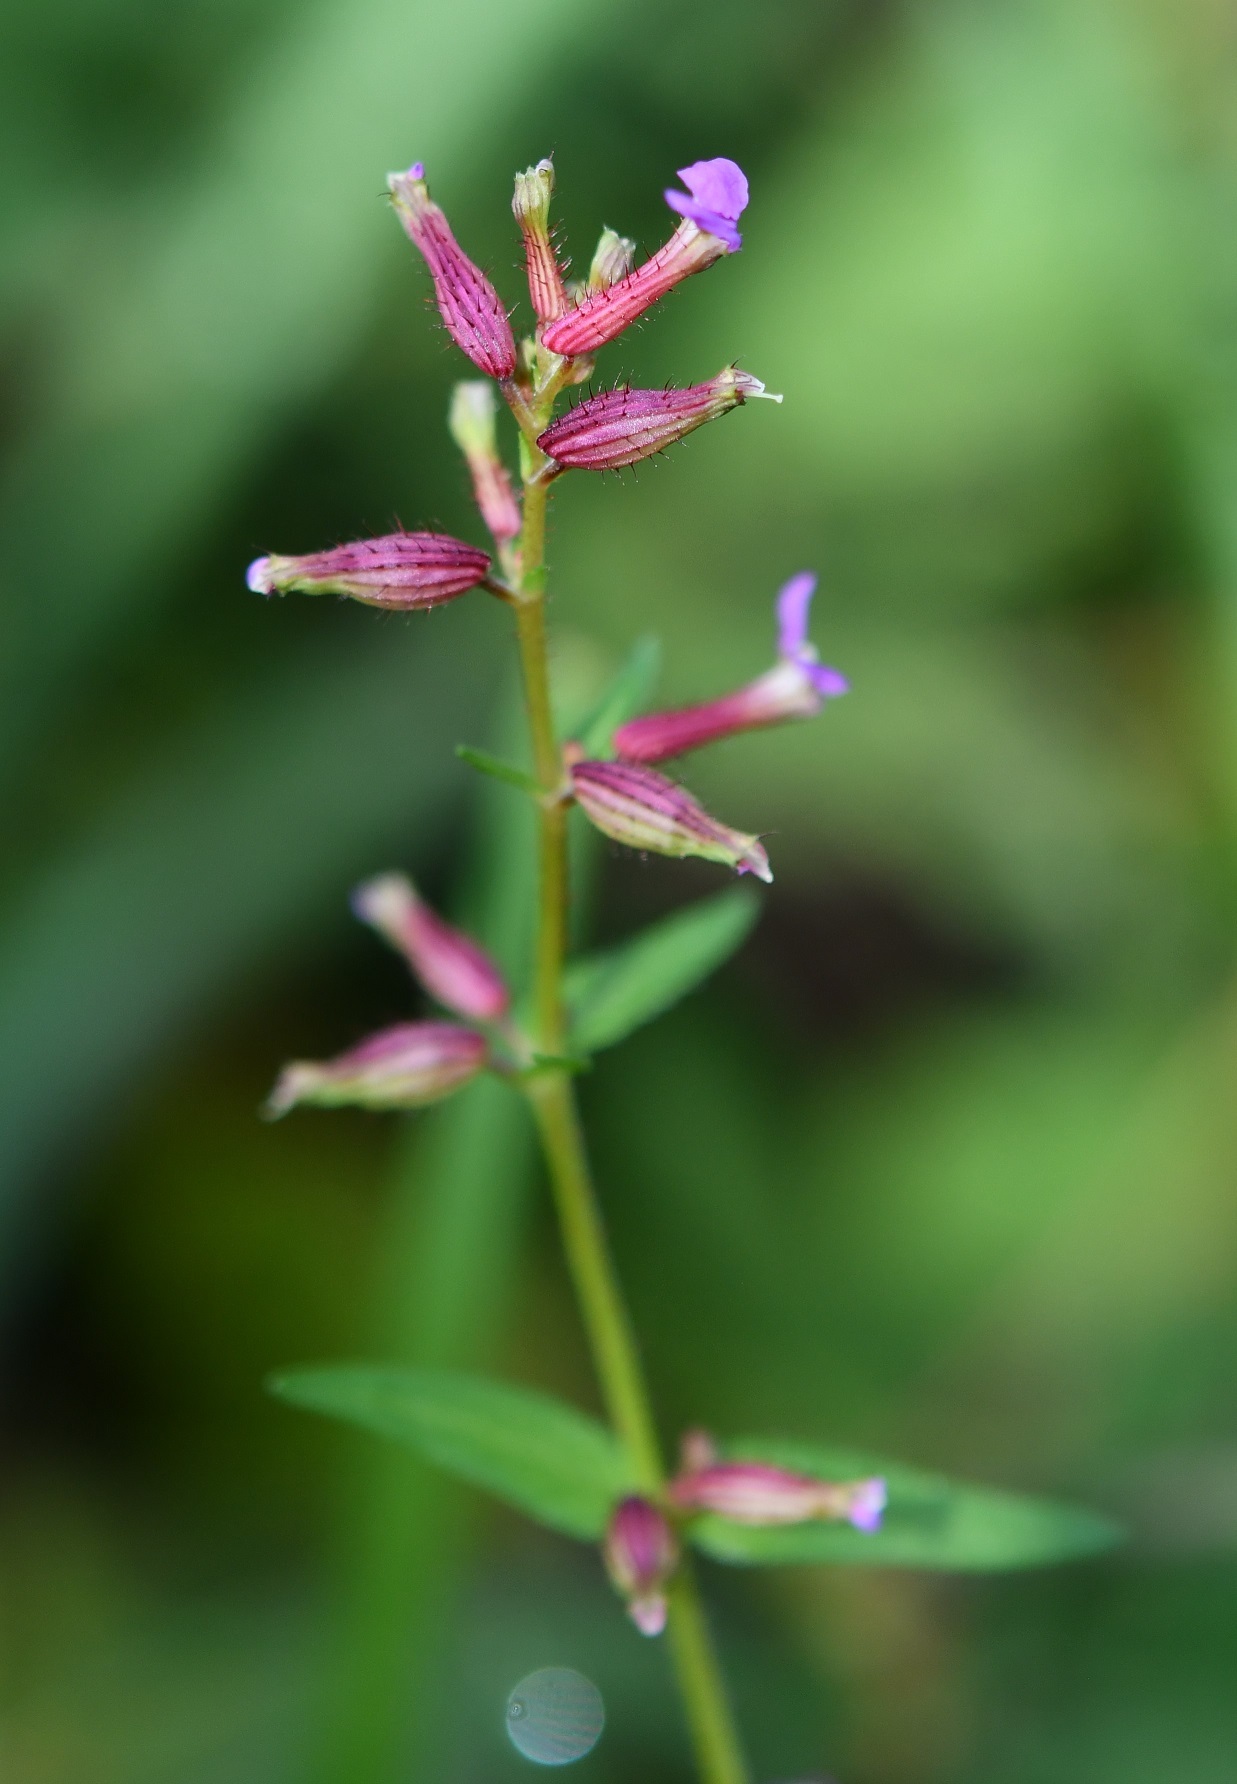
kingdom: Plantae
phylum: Tracheophyta
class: Magnoliopsida
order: Myrtales
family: Lythraceae
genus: Cuphea
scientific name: Cuphea wrightii
